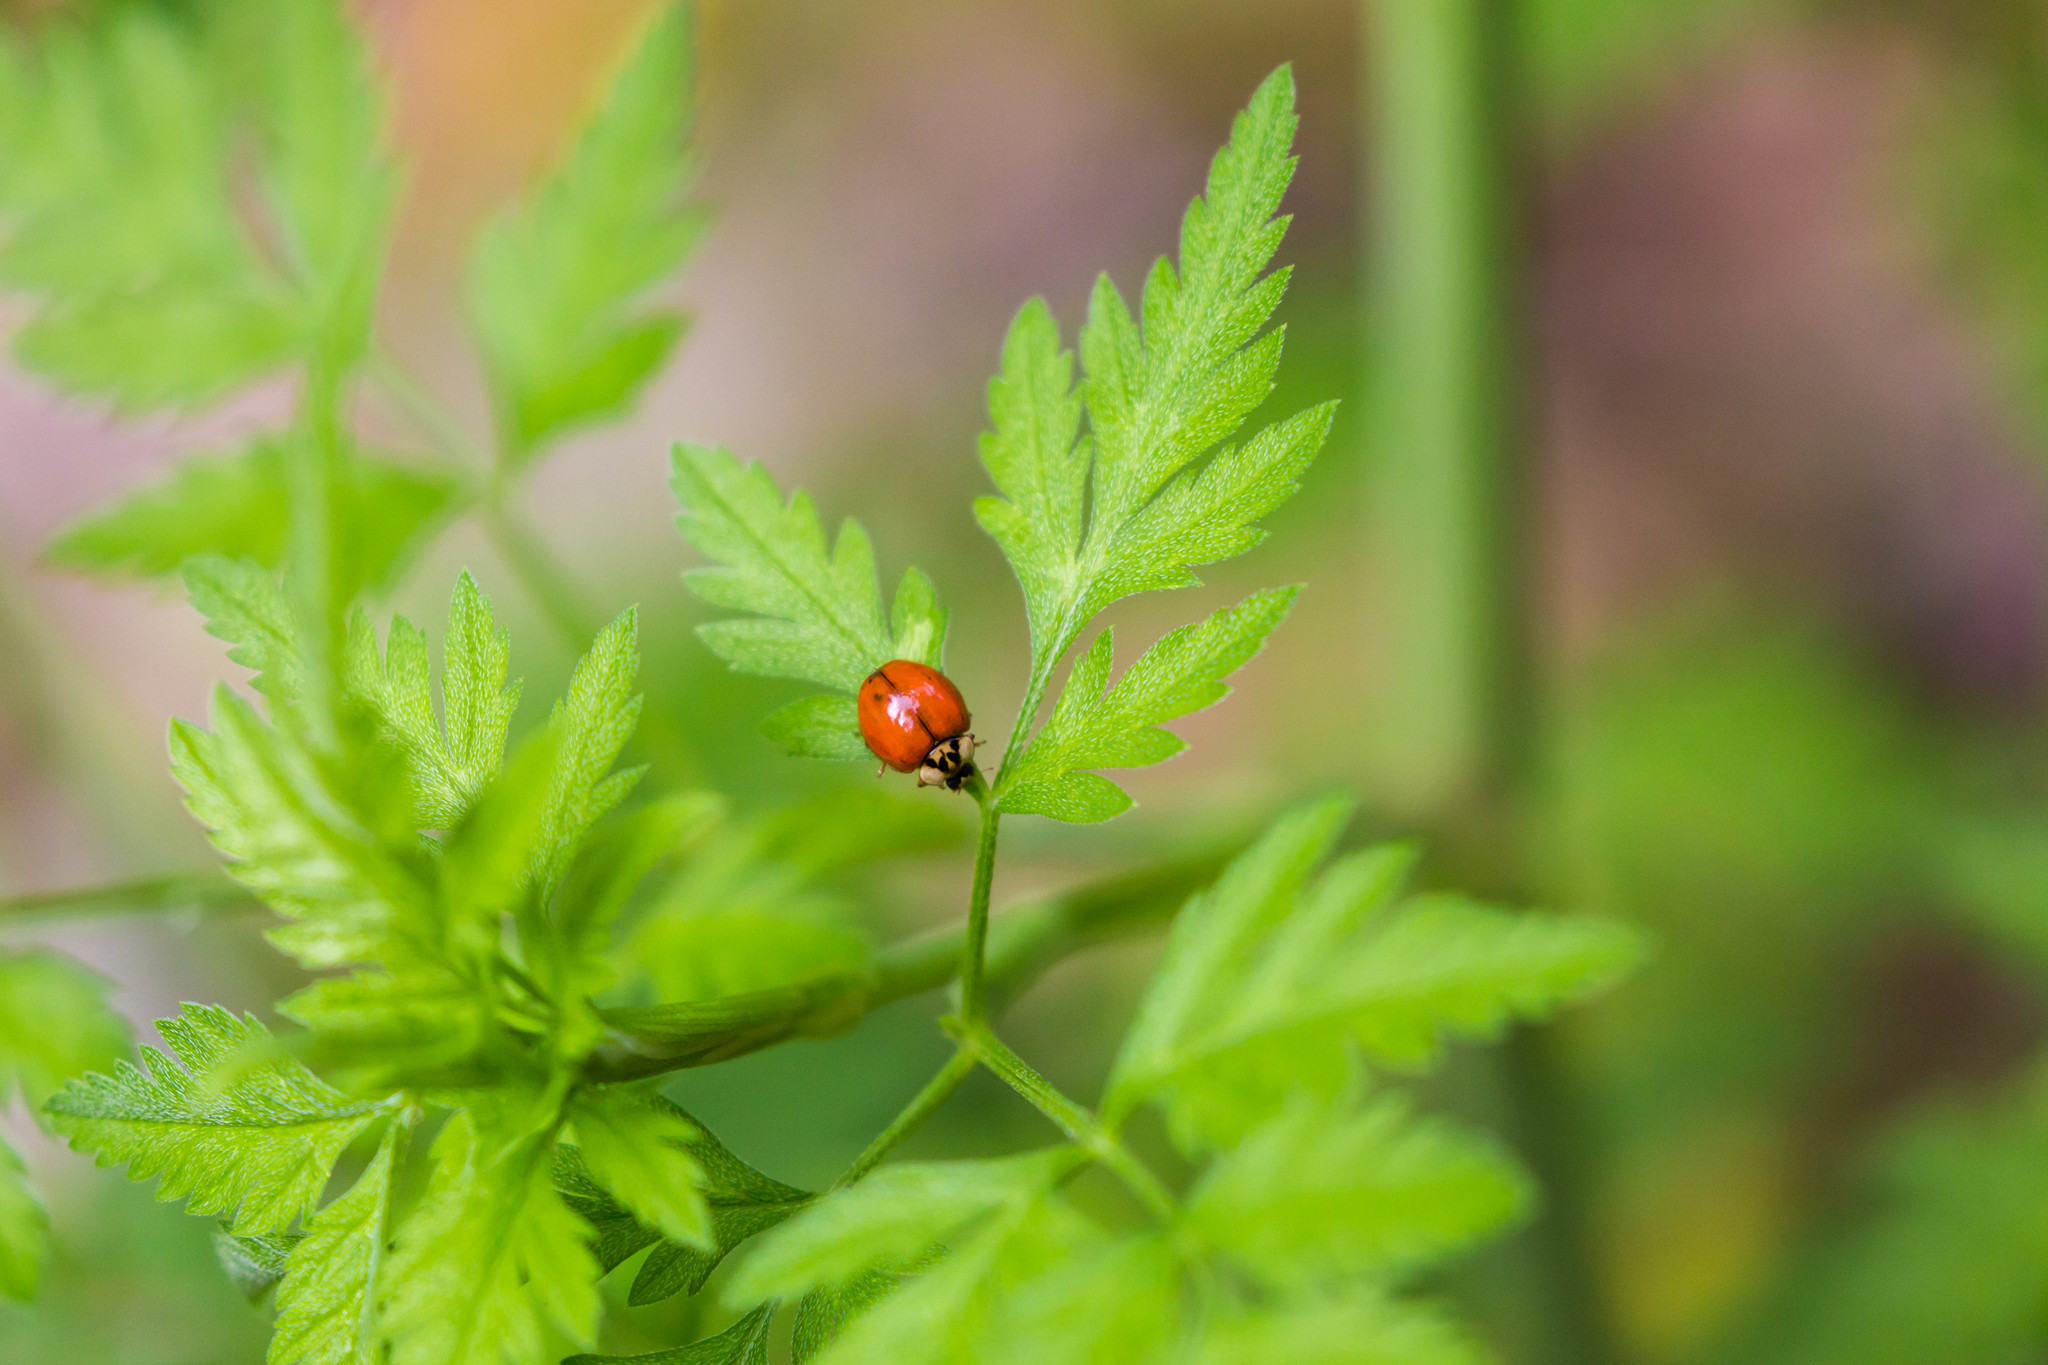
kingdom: Animalia
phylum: Arthropoda
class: Insecta
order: Coleoptera
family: Coccinellidae
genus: Harmonia
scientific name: Harmonia axyridis
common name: Harlequin ladybird
